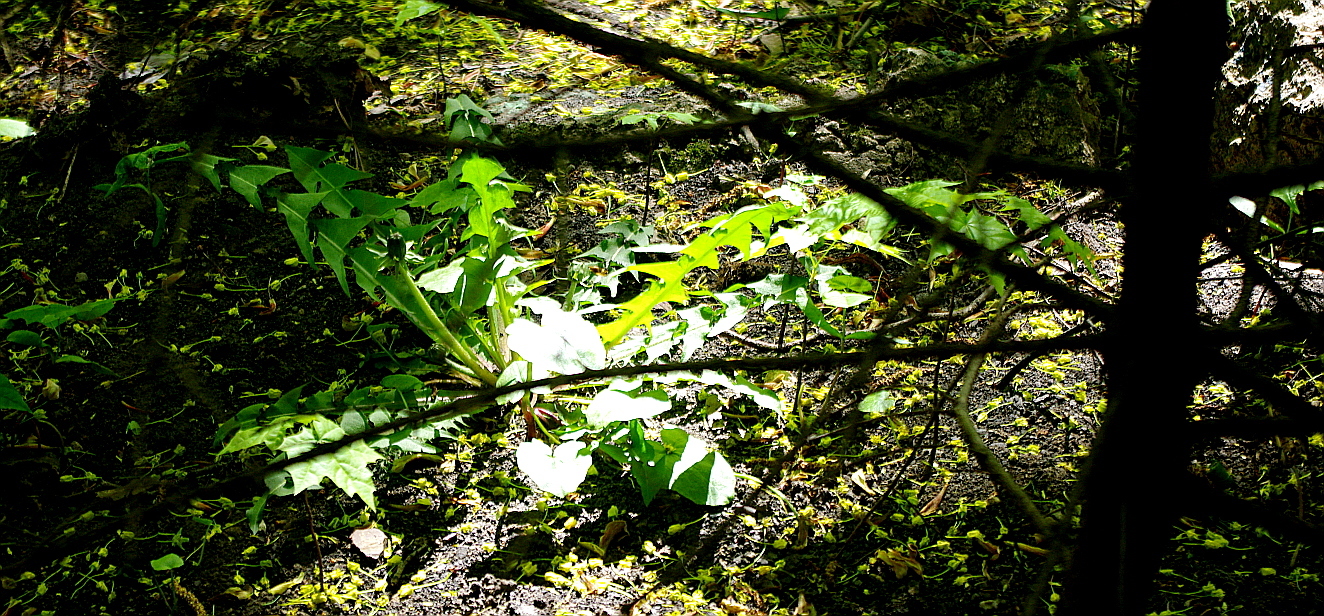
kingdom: Plantae
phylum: Tracheophyta
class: Magnoliopsida
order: Asterales
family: Asteraceae
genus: Taraxacum
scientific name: Taraxacum officinale
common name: Common dandelion
